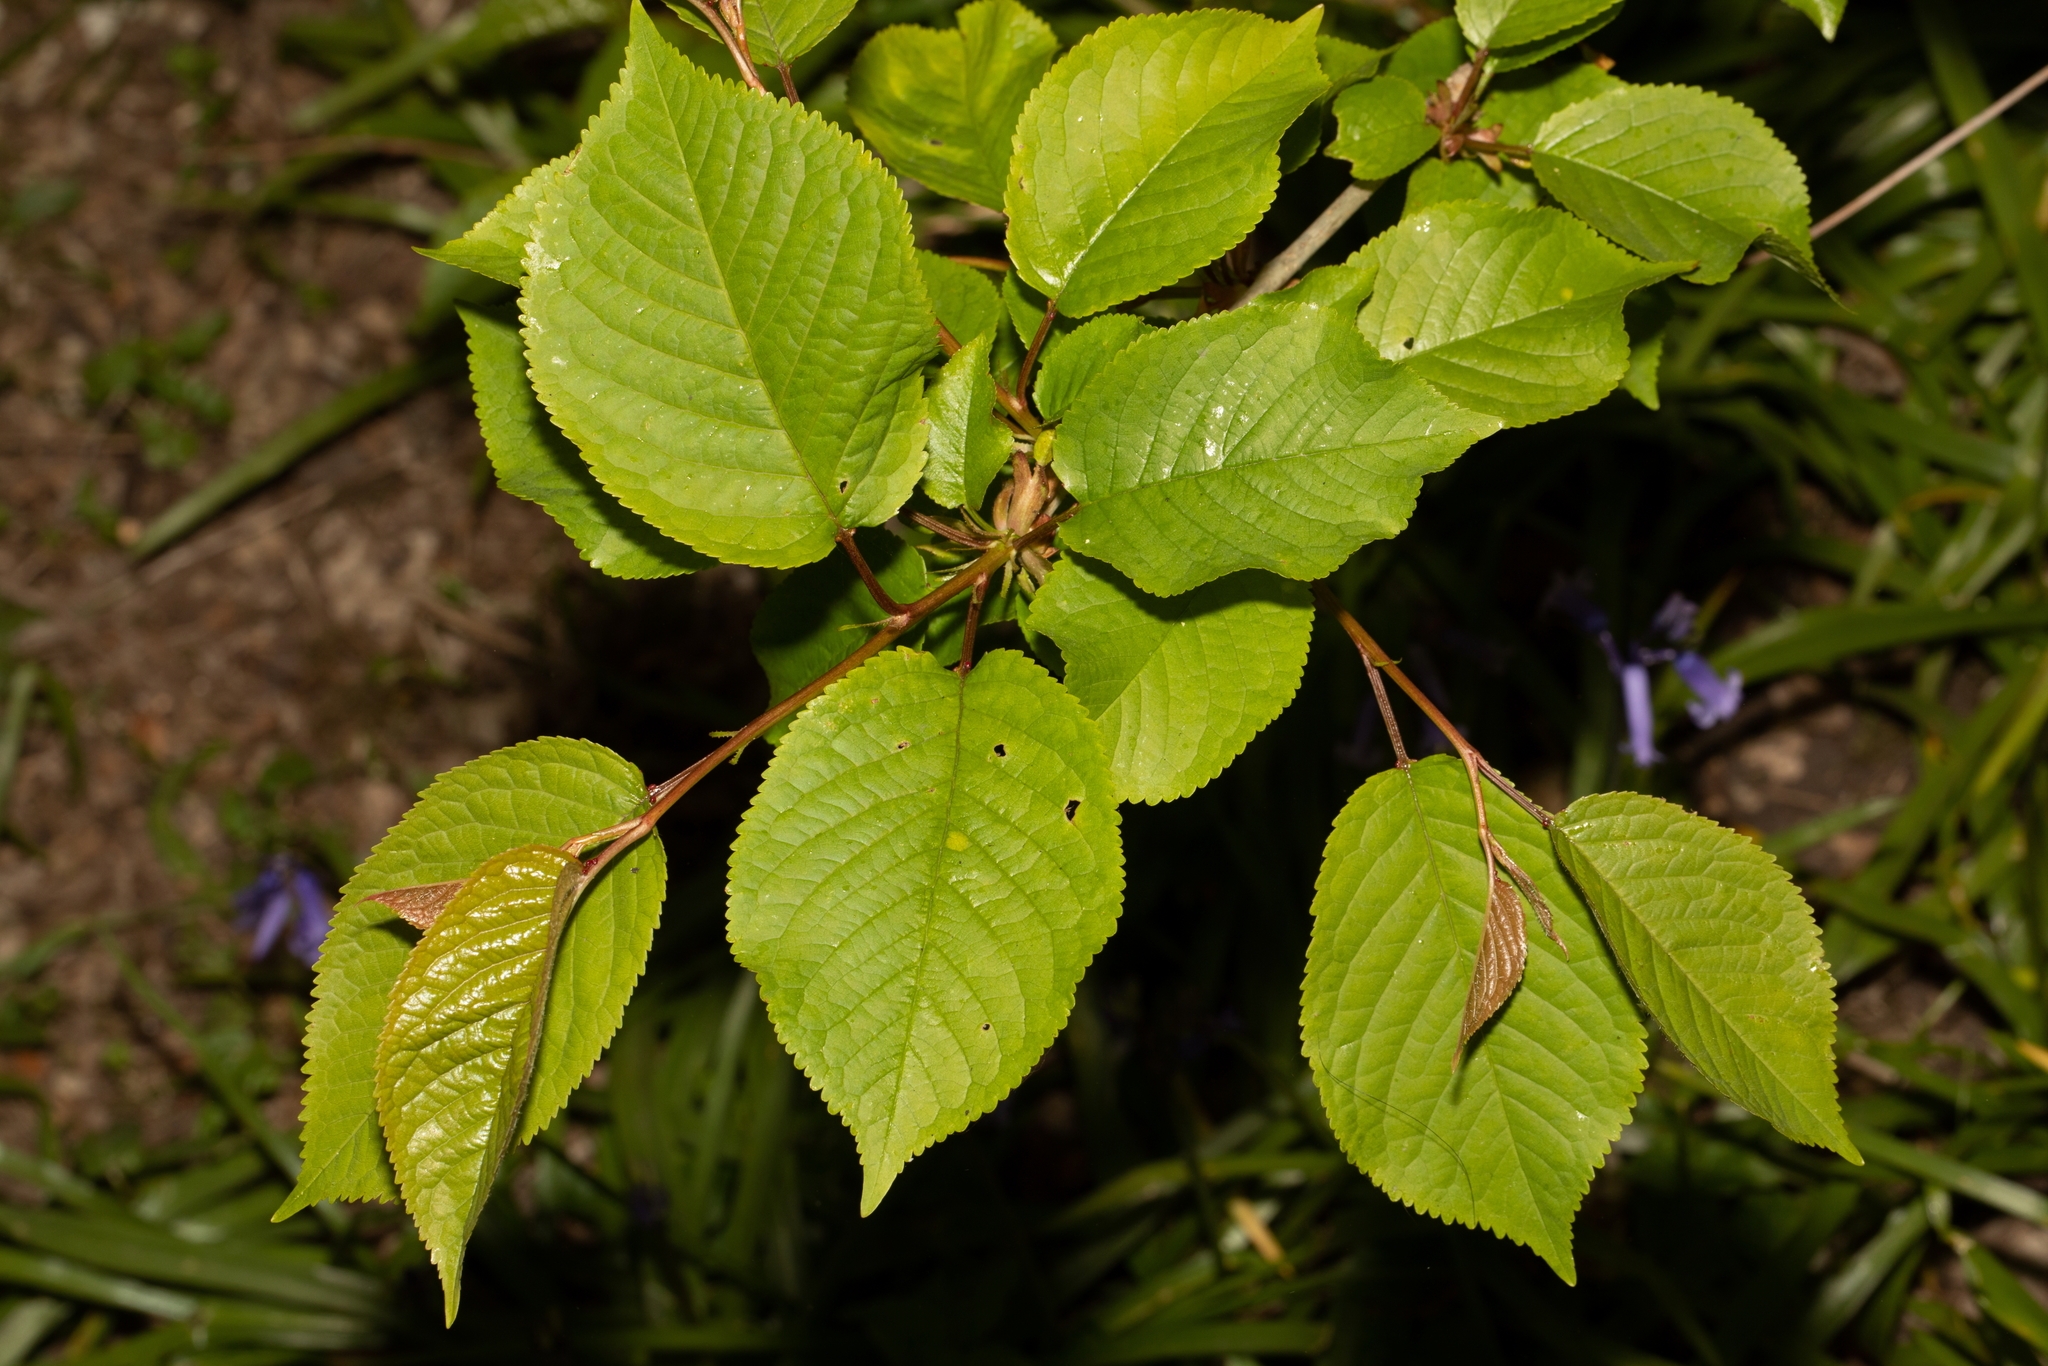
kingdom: Plantae
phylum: Tracheophyta
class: Magnoliopsida
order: Rosales
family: Rosaceae
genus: Prunus
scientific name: Prunus avium
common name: Sweet cherry
